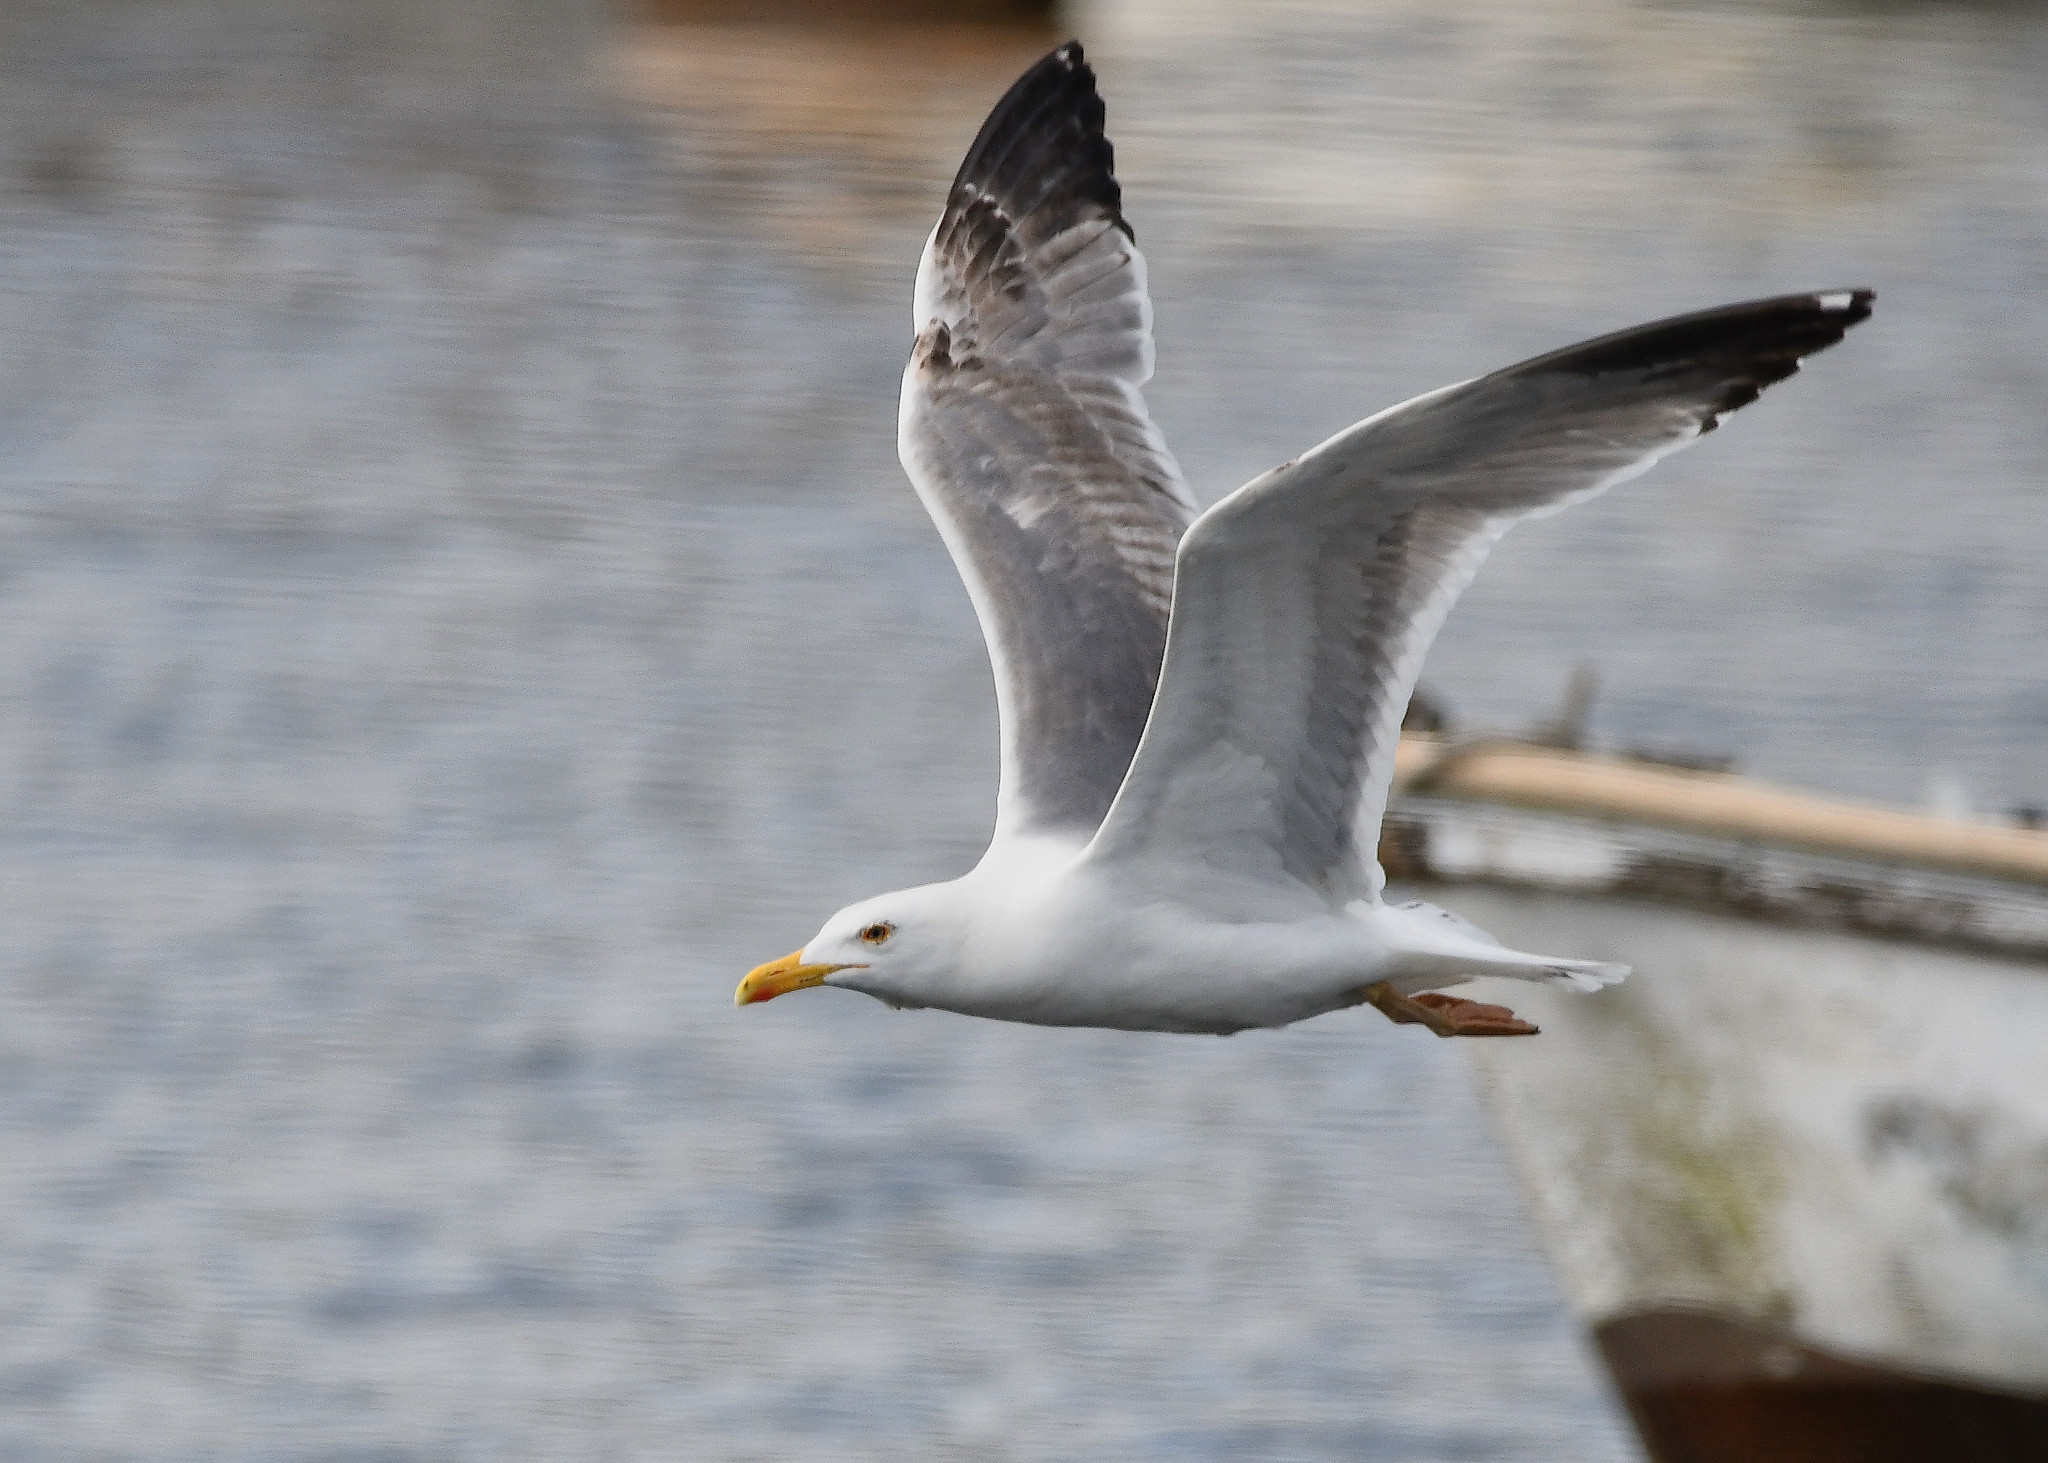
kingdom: Animalia
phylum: Chordata
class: Aves
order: Charadriiformes
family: Laridae
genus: Larus
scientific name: Larus argentatus
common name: Herring gull
